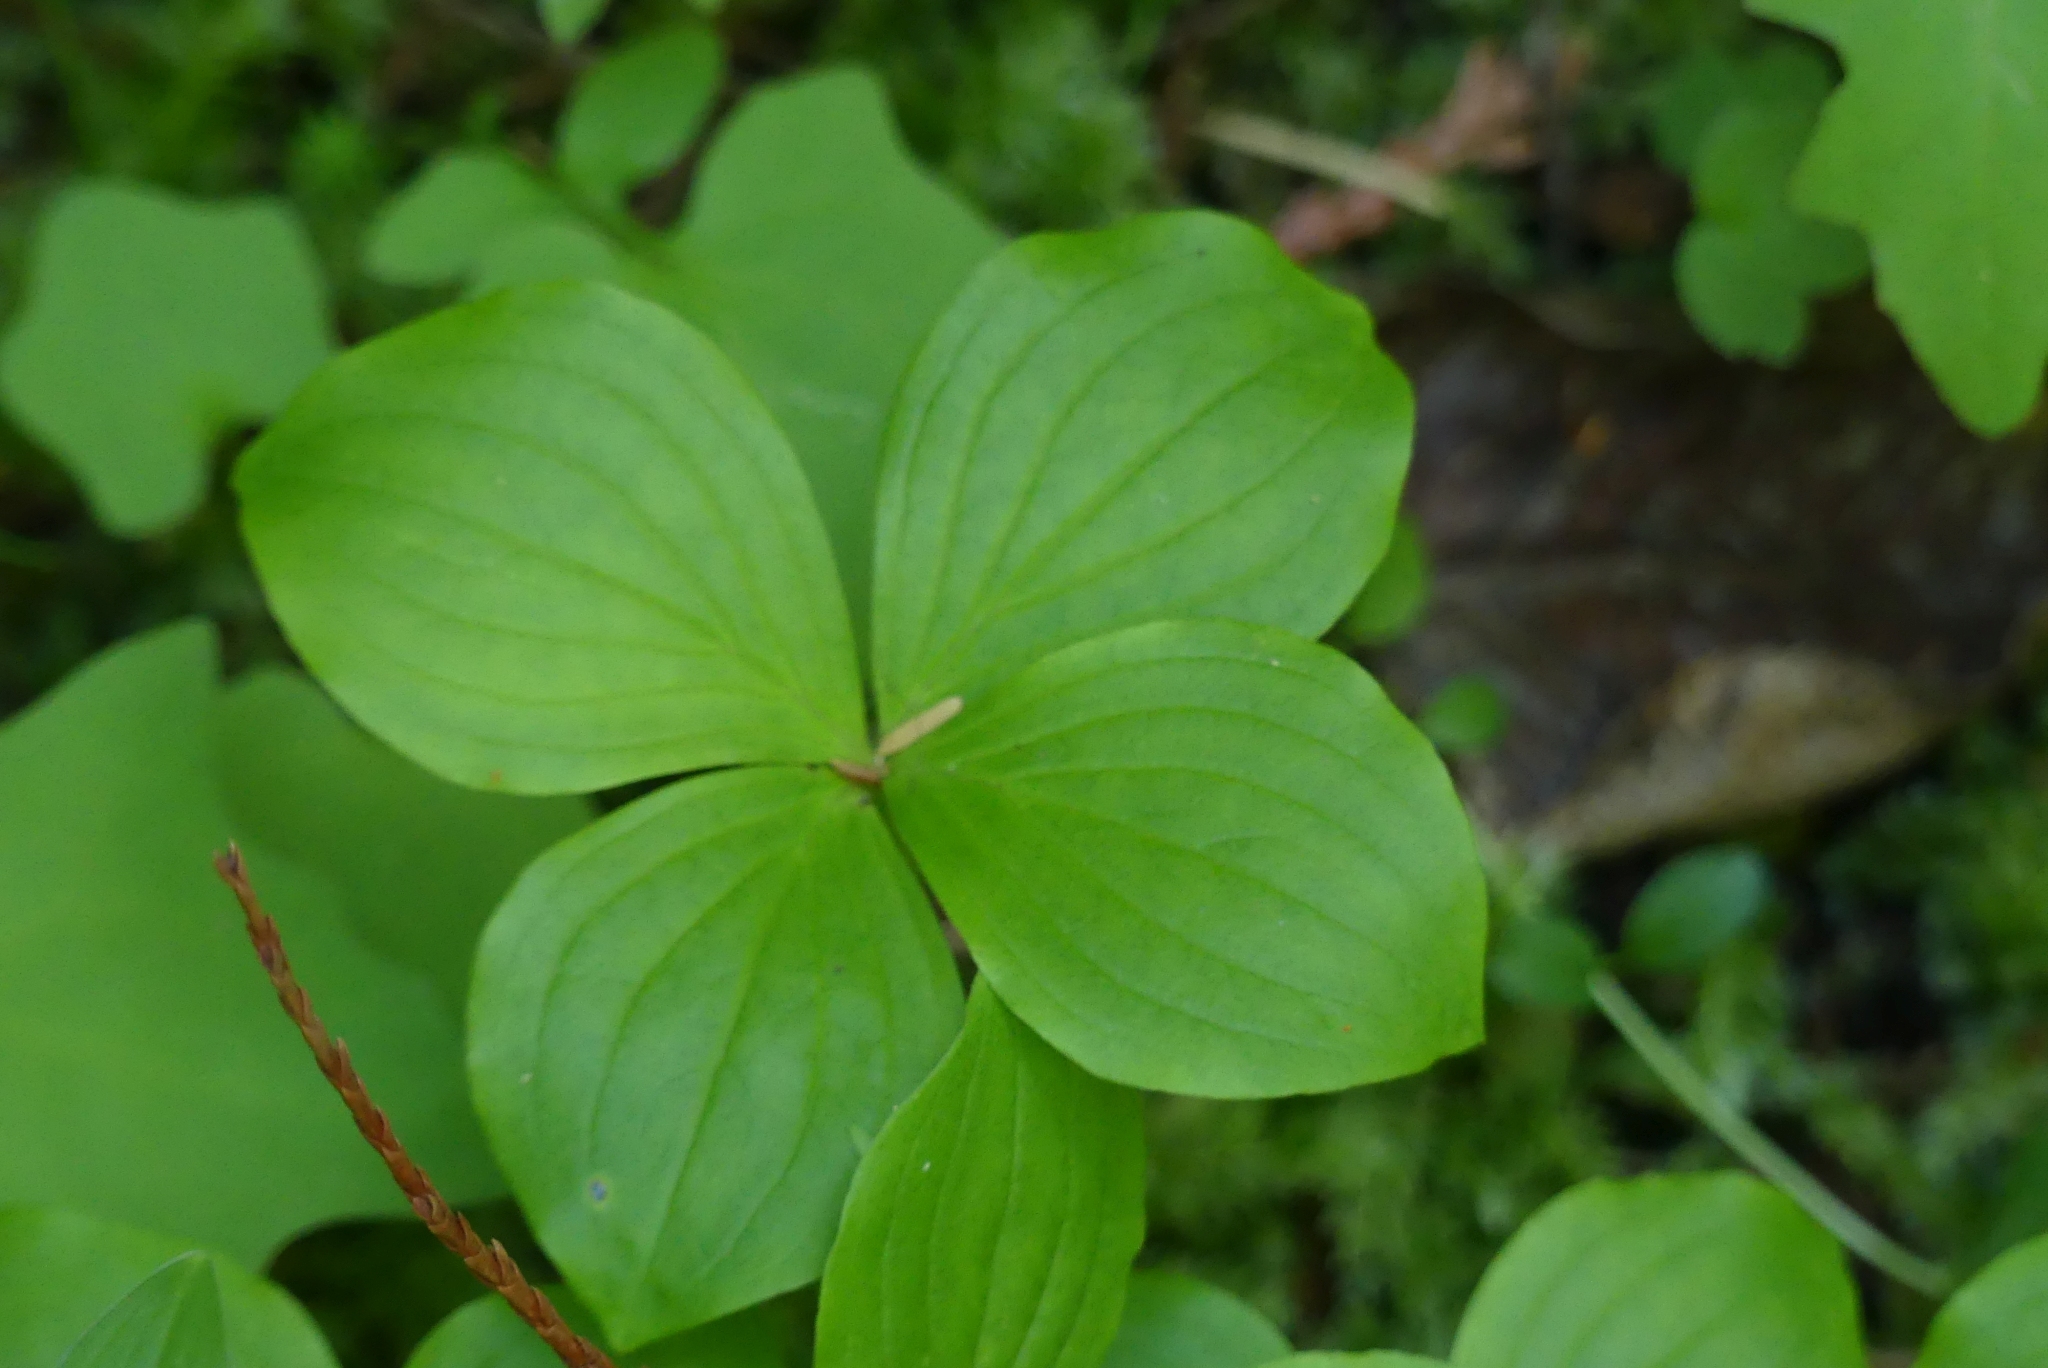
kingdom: Plantae
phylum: Tracheophyta
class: Magnoliopsida
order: Cornales
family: Cornaceae
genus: Cornus
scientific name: Cornus unalaschkensis
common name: Alaska bunchberry
